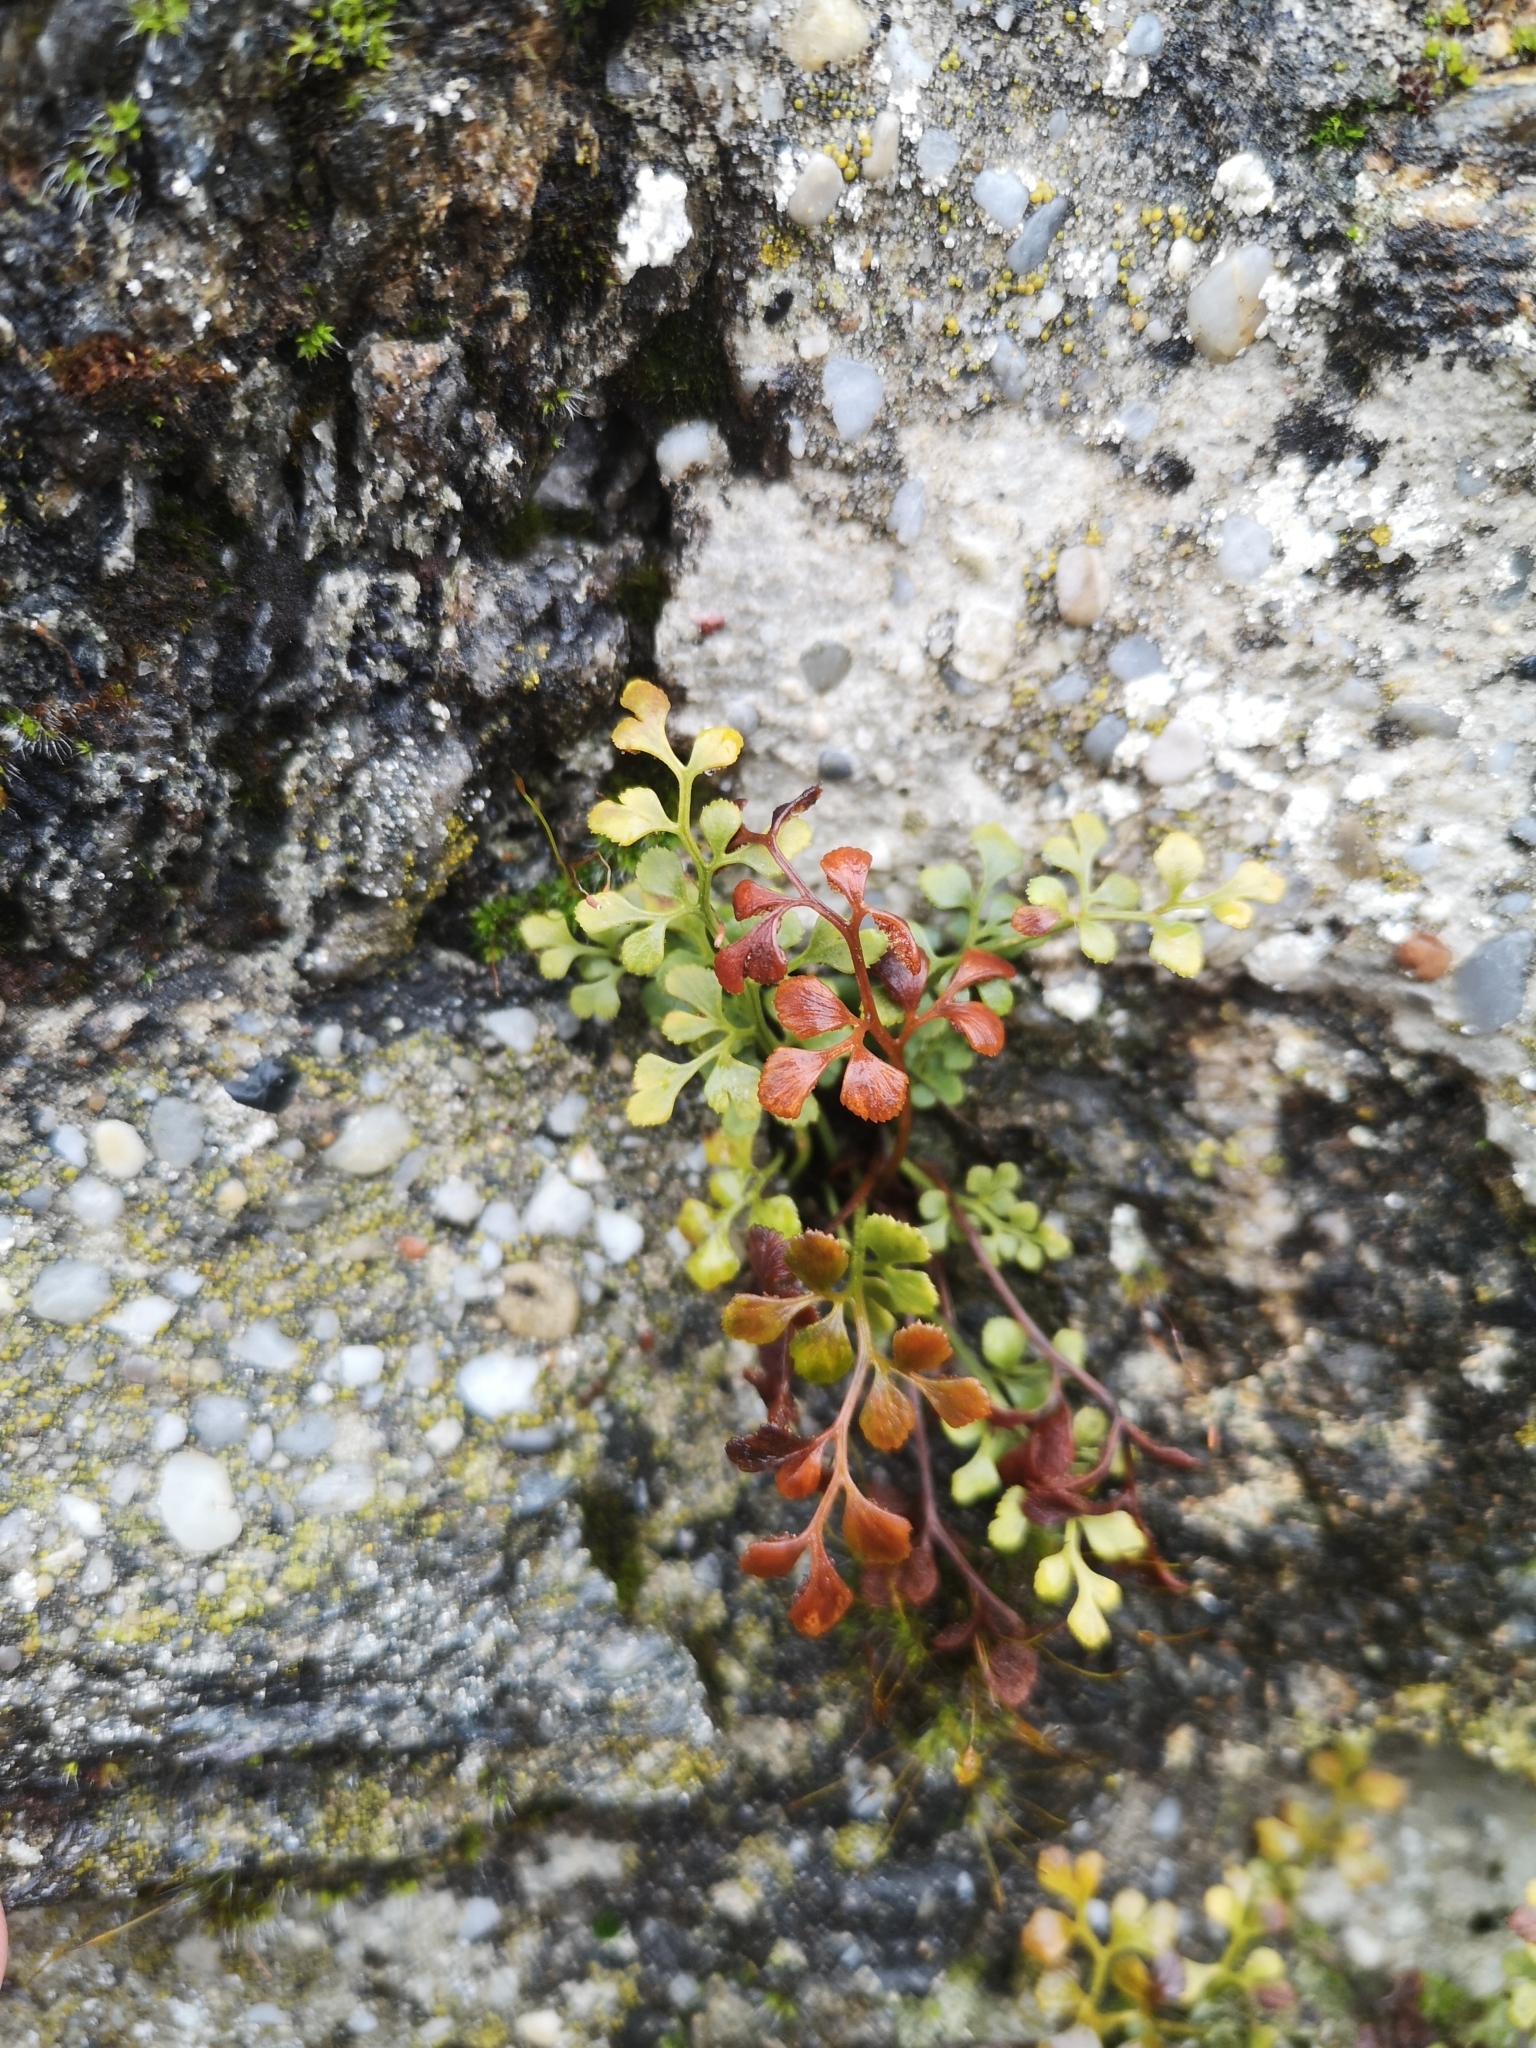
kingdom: Plantae
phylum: Tracheophyta
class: Polypodiopsida
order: Polypodiales
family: Aspleniaceae
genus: Asplenium
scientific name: Asplenium ruta-muraria
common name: Wall-rue
